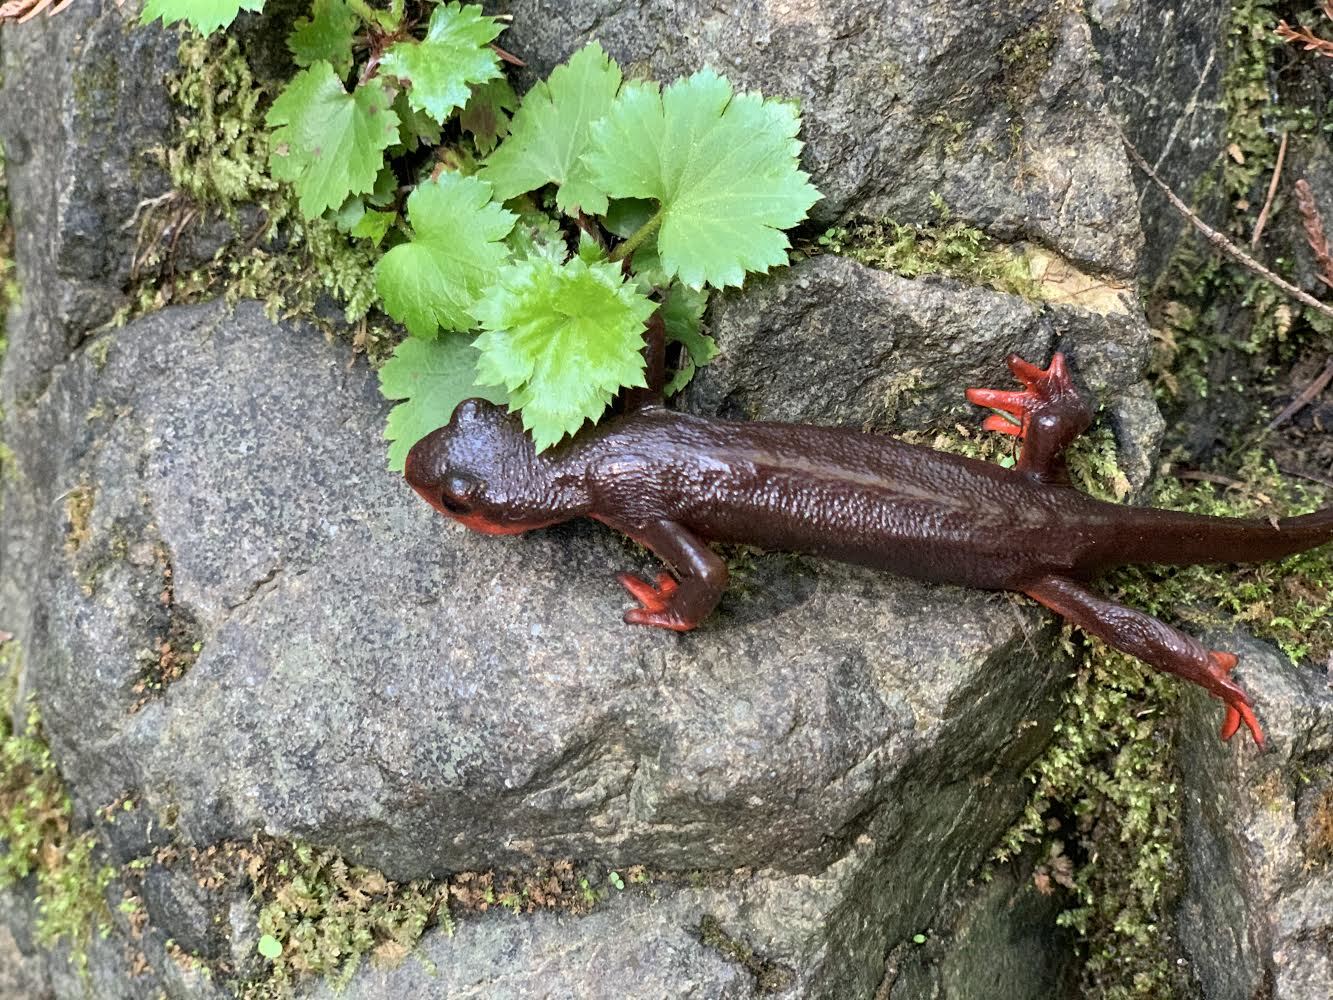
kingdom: Animalia
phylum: Chordata
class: Amphibia
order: Caudata
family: Salamandridae
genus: Taricha
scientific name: Taricha rivularis
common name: Red-bellied newt
